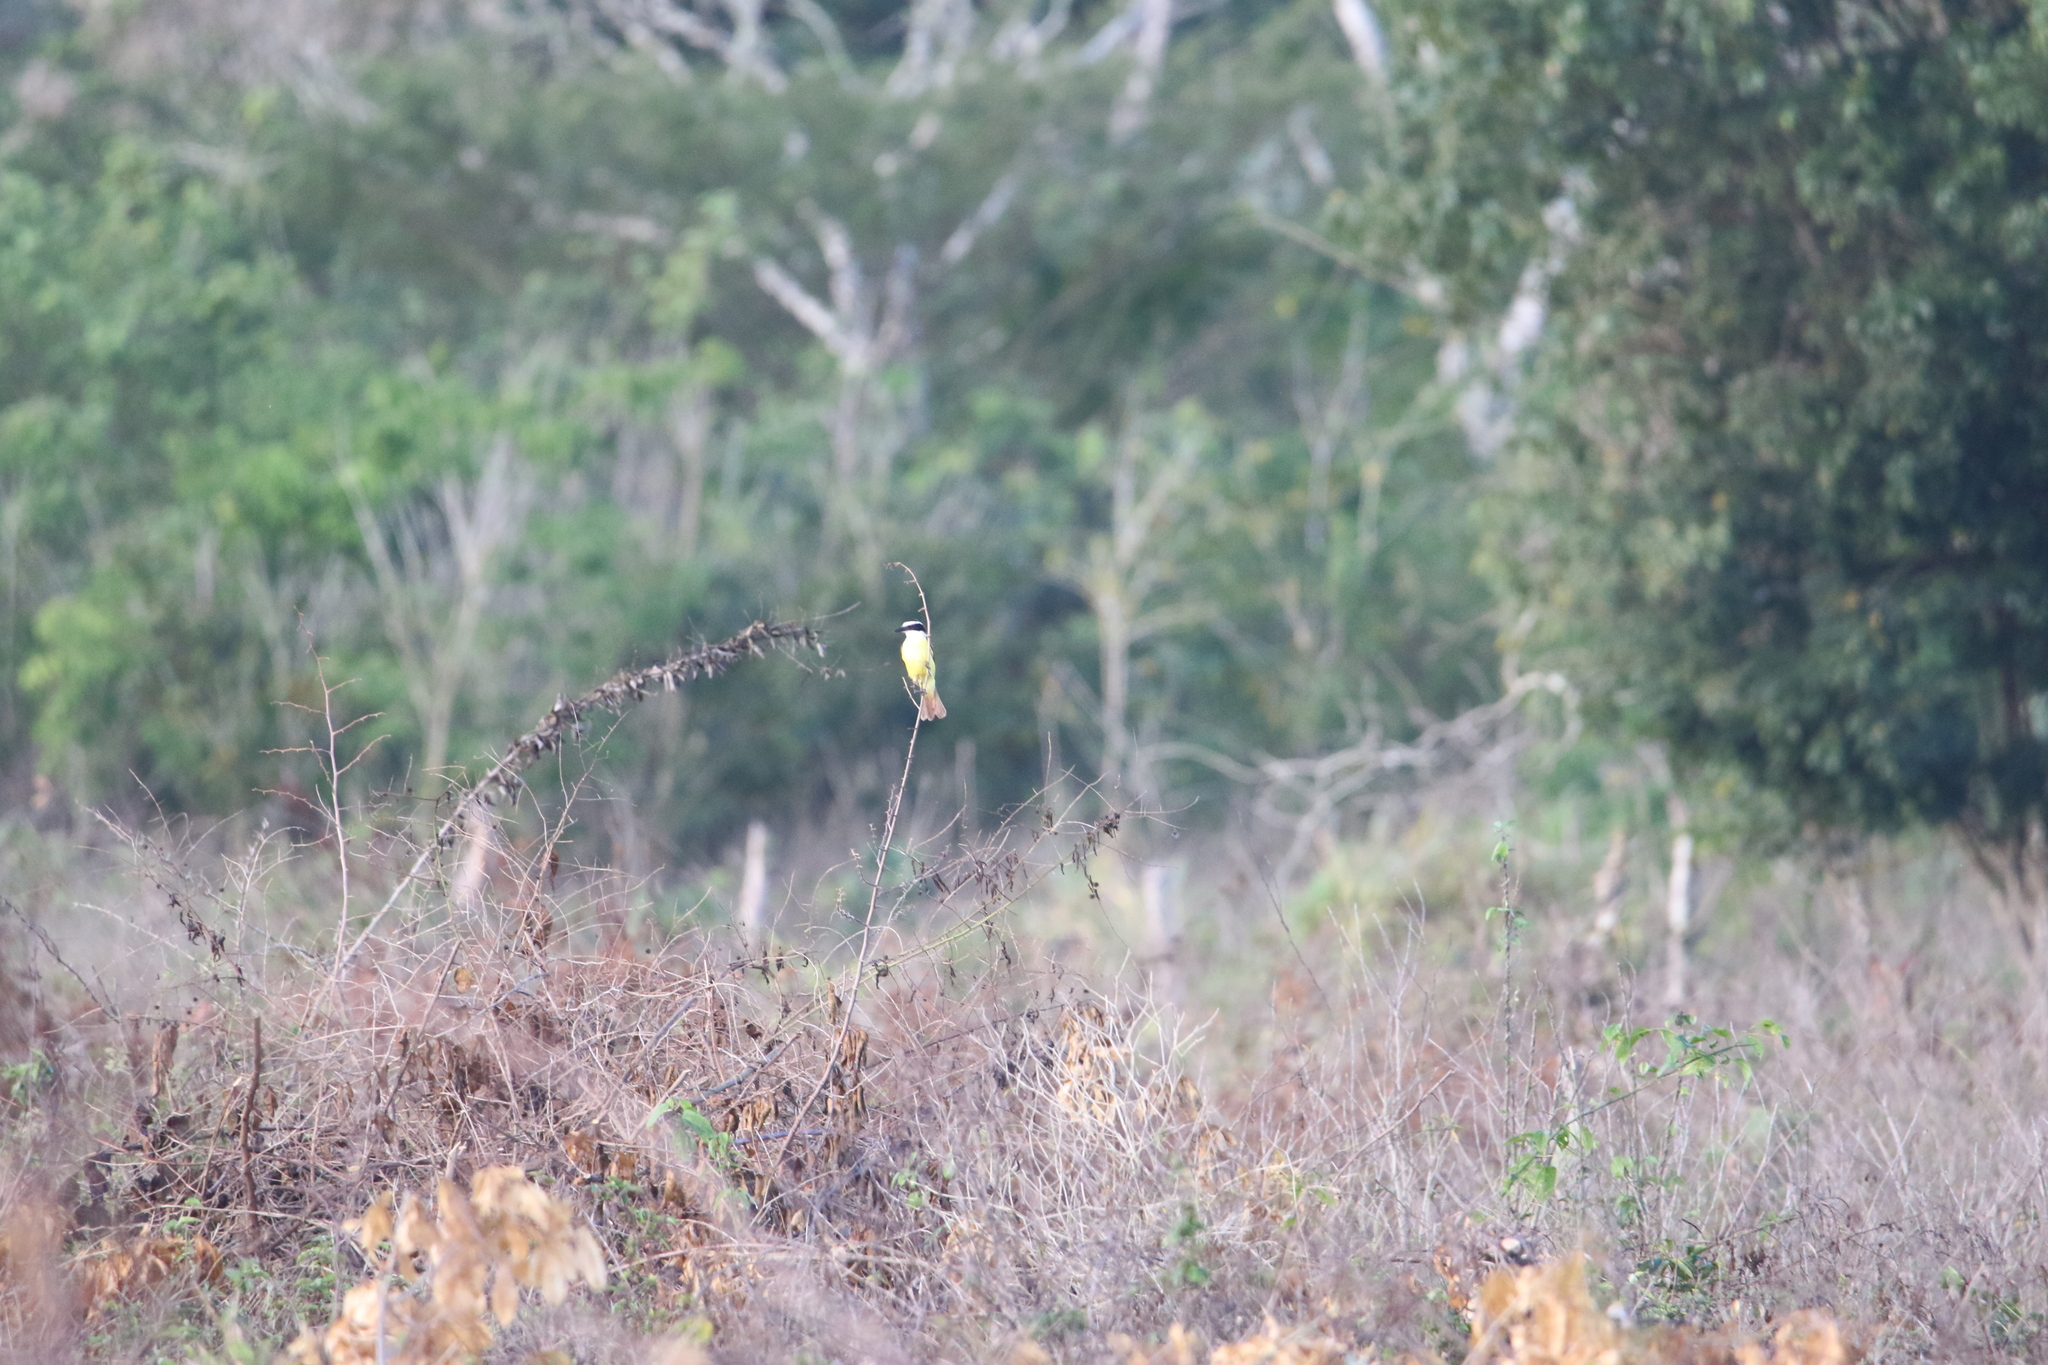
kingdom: Animalia
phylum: Chordata
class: Aves
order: Passeriformes
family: Tyrannidae
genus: Pitangus
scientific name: Pitangus sulphuratus
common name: Great kiskadee
